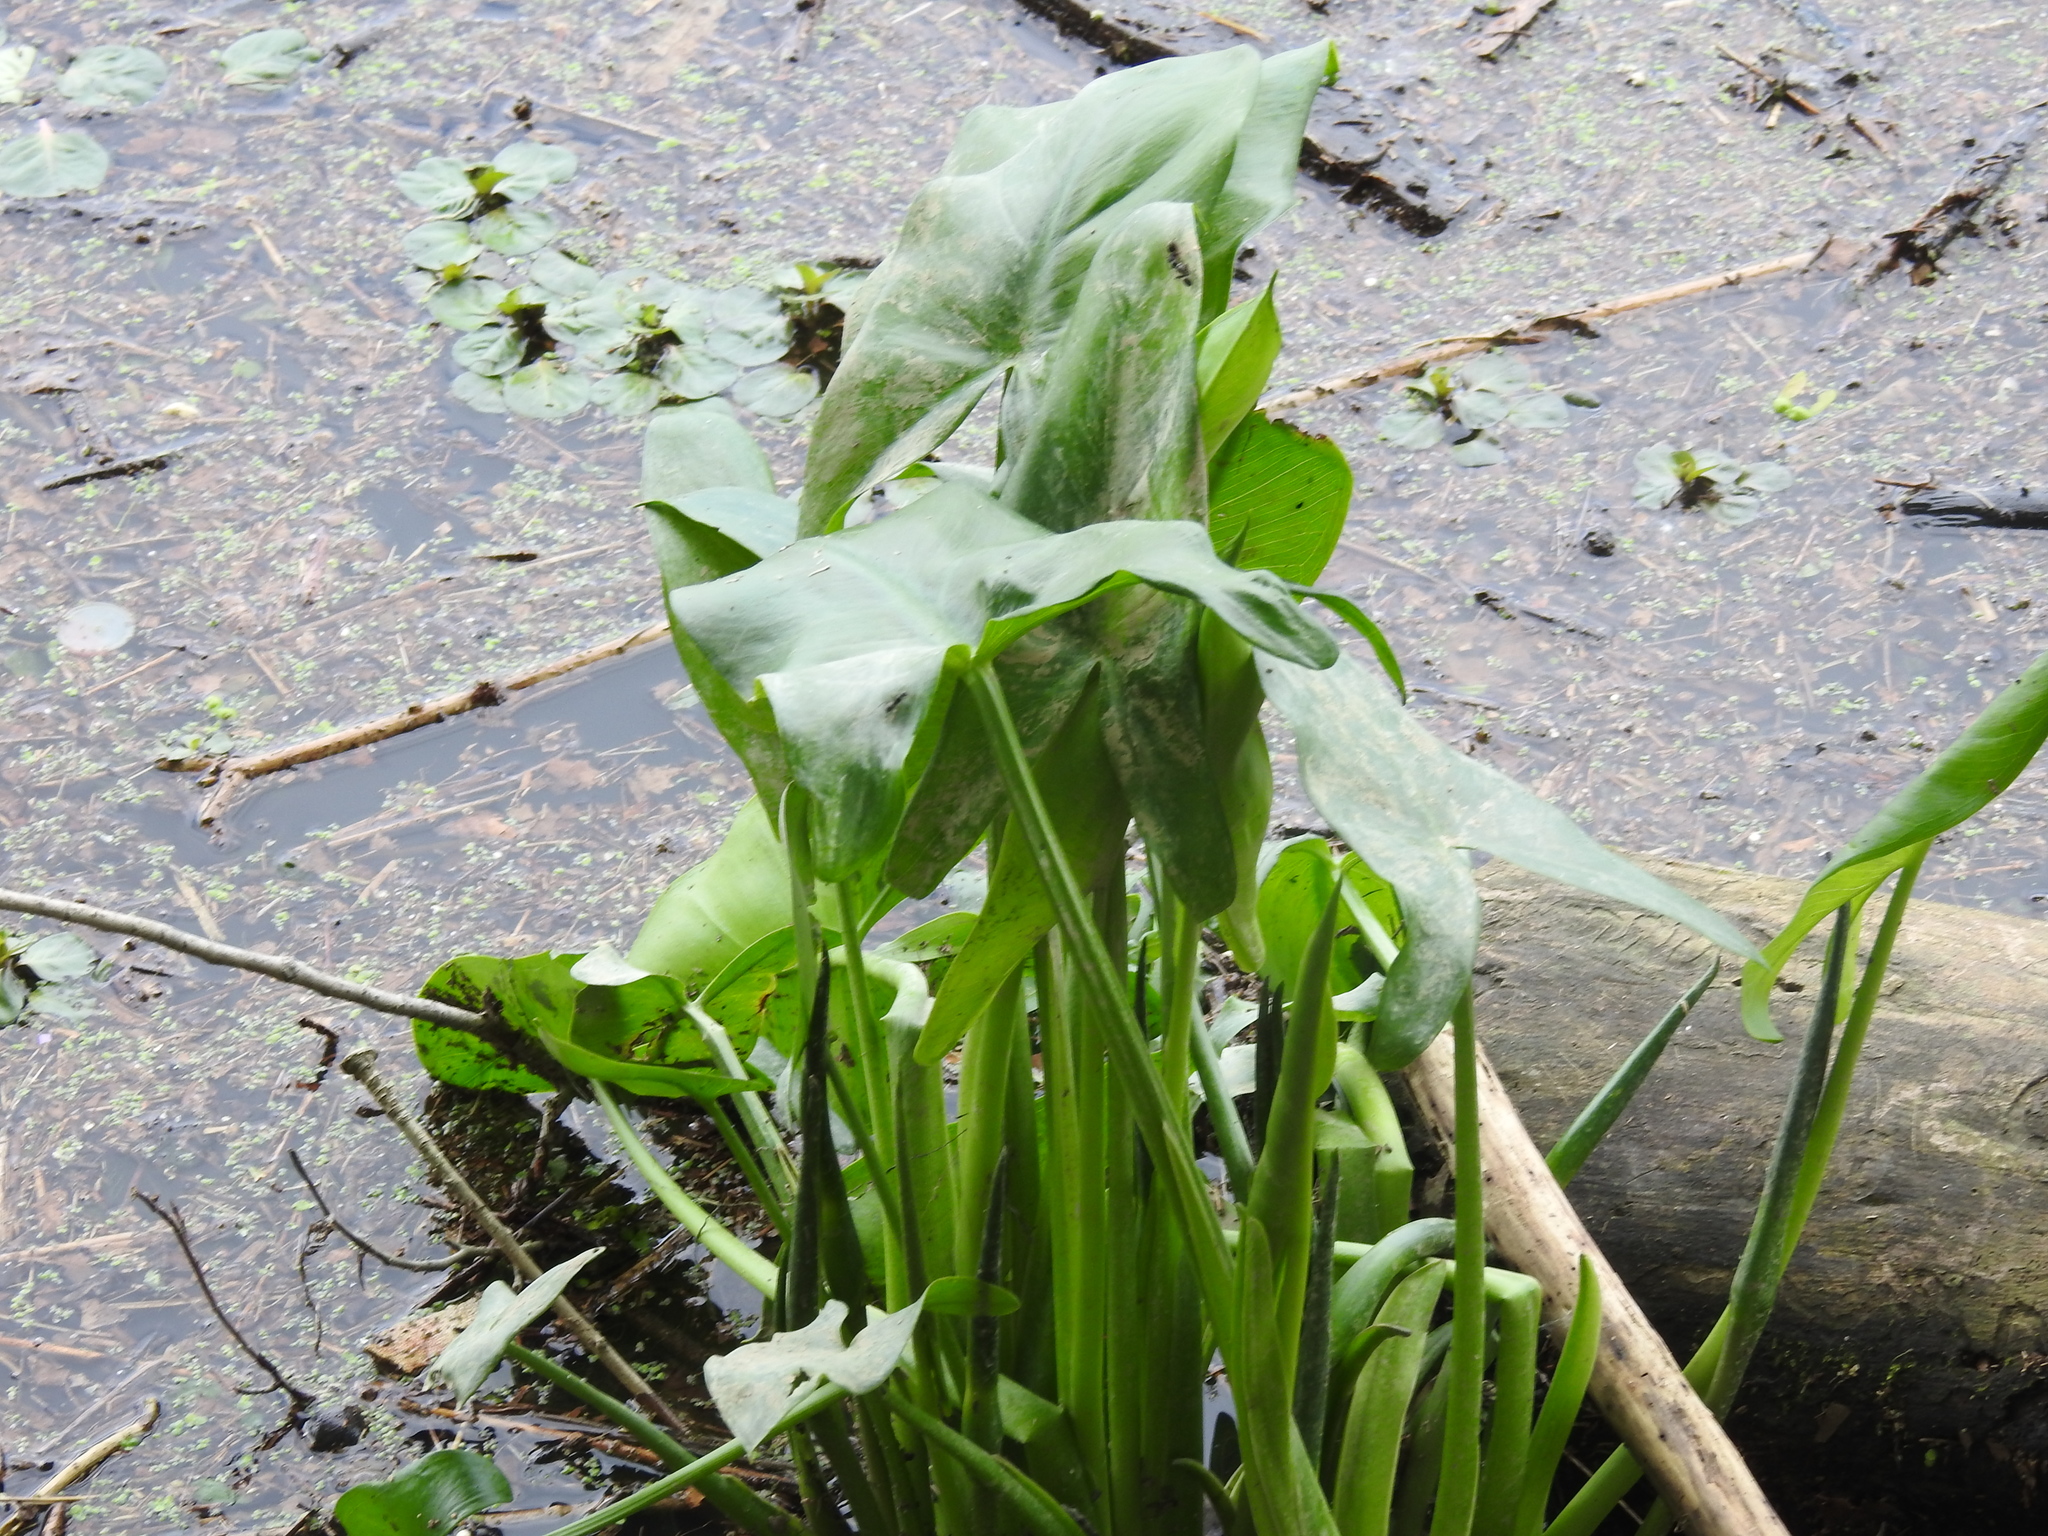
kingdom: Plantae
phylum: Tracheophyta
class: Liliopsida
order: Alismatales
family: Araceae
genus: Peltandra
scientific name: Peltandra virginica
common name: Arrow arum
